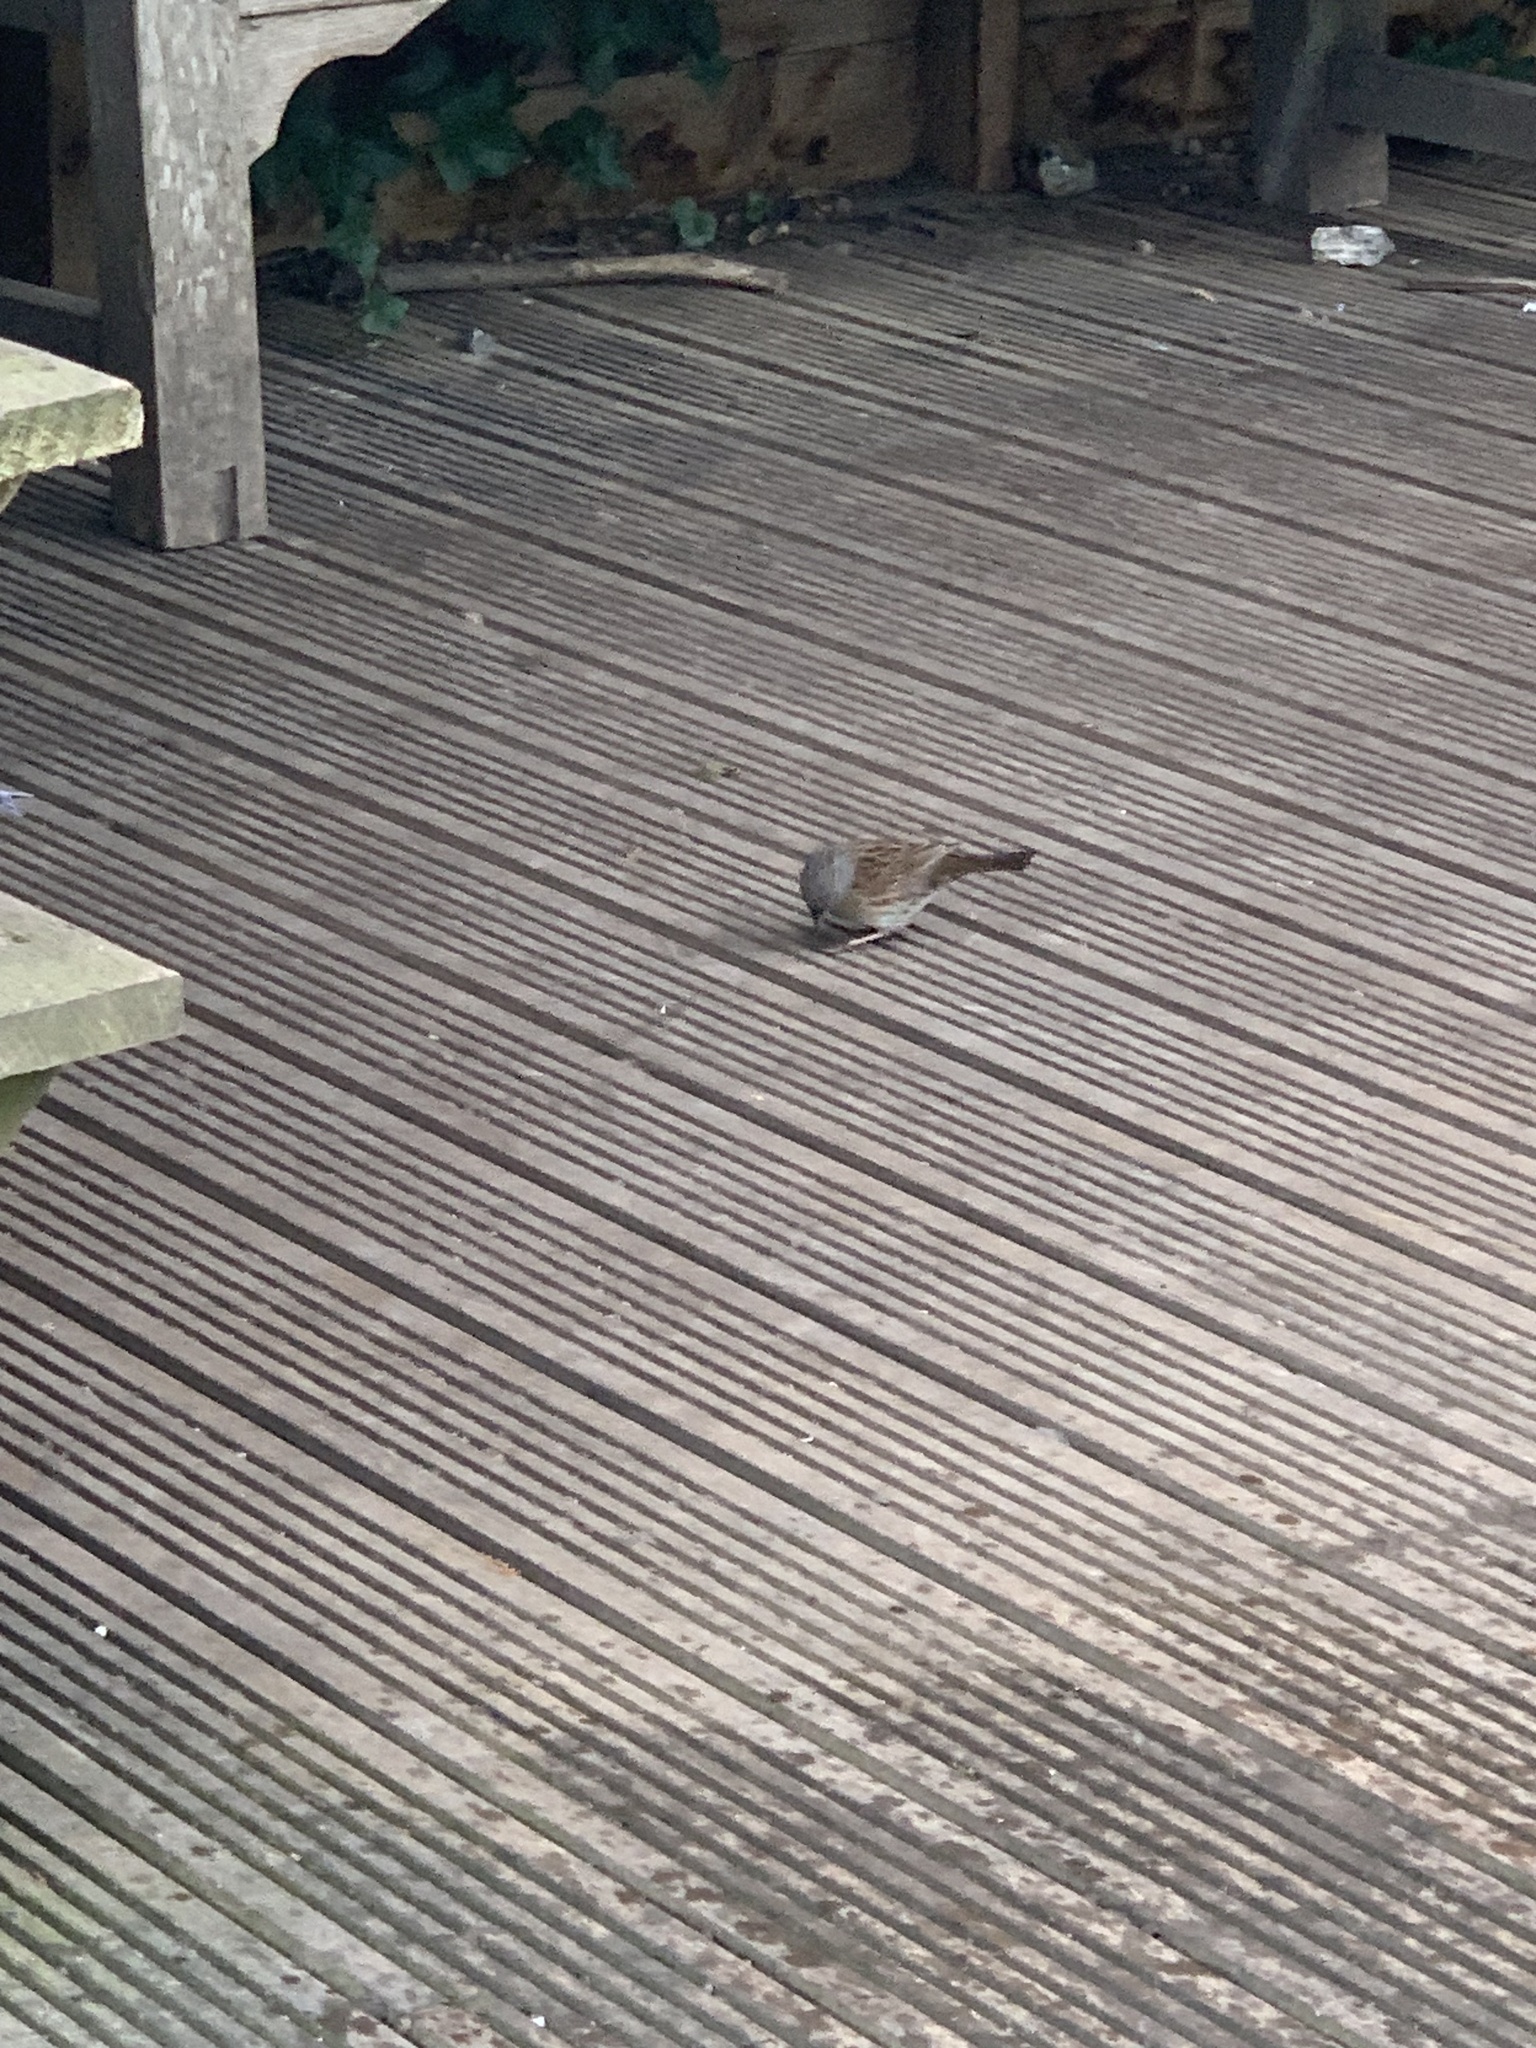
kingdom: Animalia
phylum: Chordata
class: Aves
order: Passeriformes
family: Prunellidae
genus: Prunella
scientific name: Prunella modularis
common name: Dunnock
